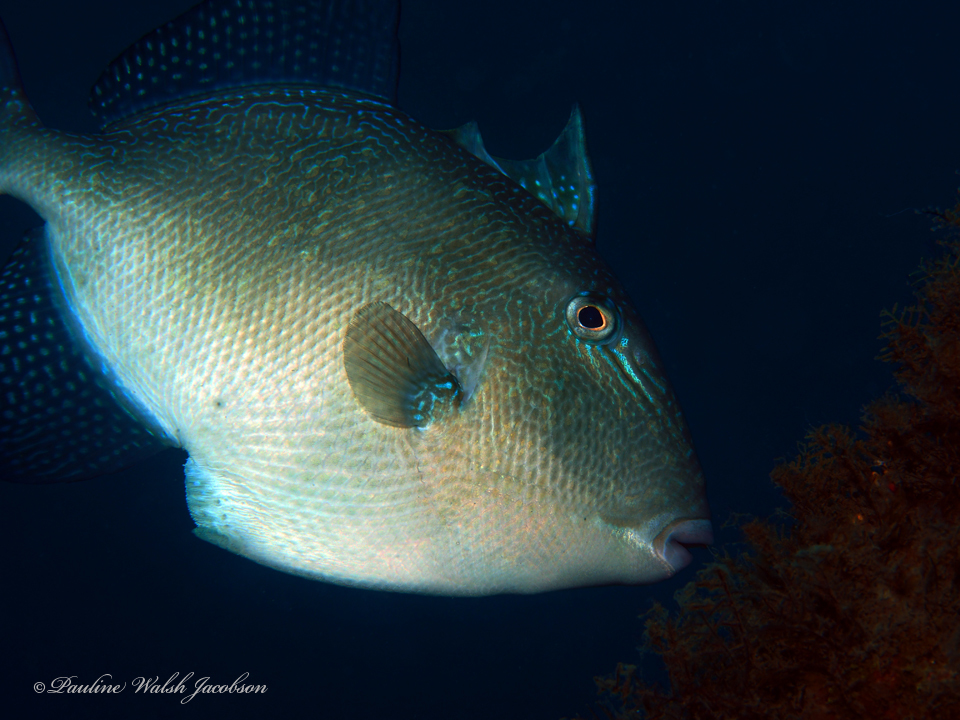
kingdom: Animalia
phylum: Chordata
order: Tetraodontiformes
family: Balistidae
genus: Balistes
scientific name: Balistes capriscus
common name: Grey triggerfish
